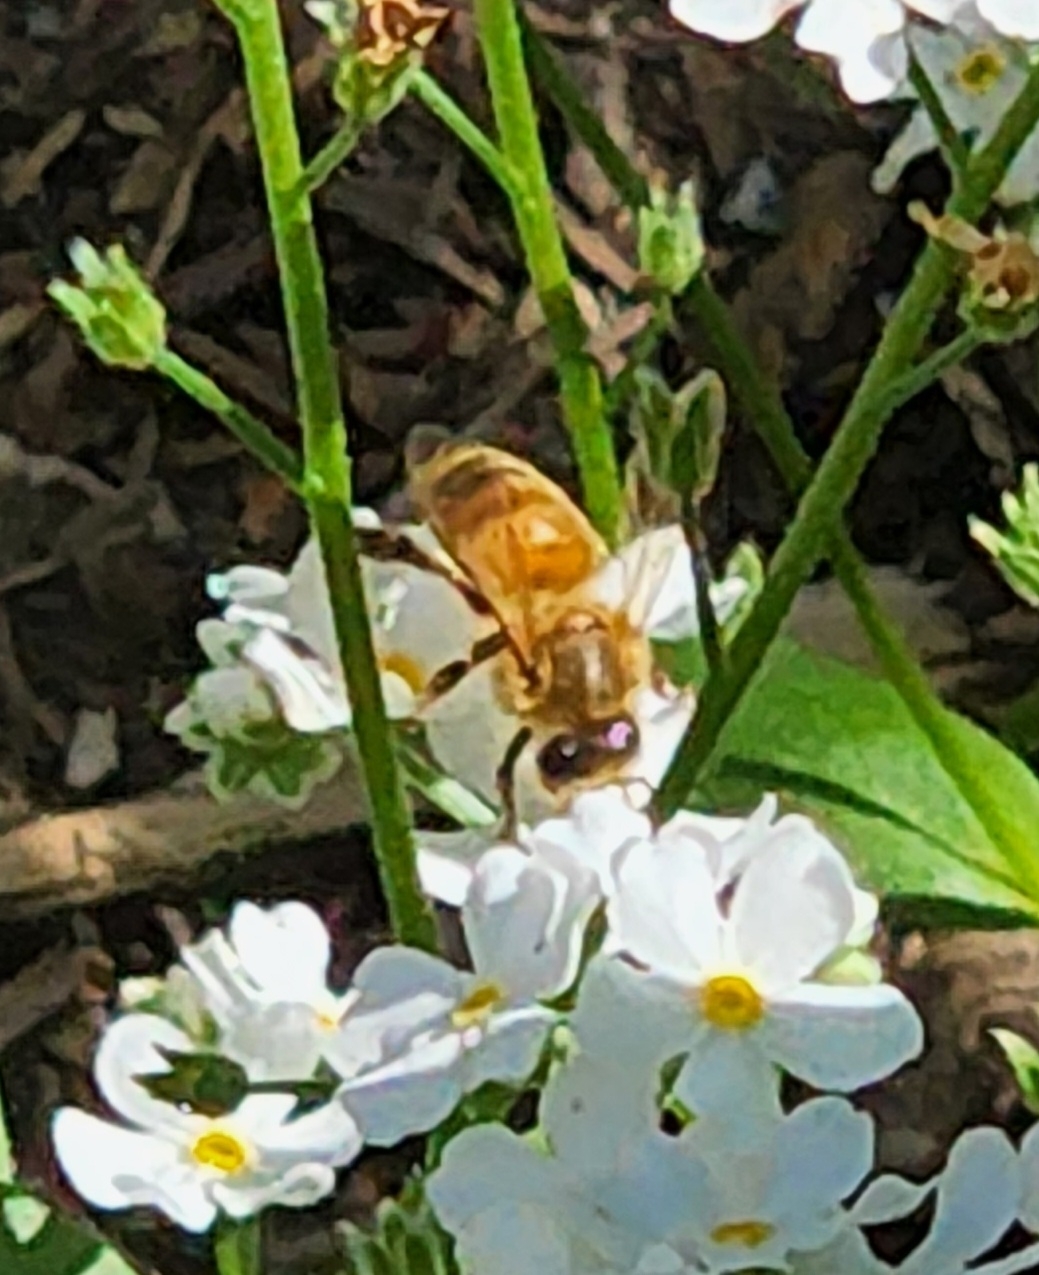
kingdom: Animalia
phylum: Arthropoda
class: Insecta
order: Hymenoptera
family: Apidae
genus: Apis
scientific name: Apis mellifera
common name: Honey bee
